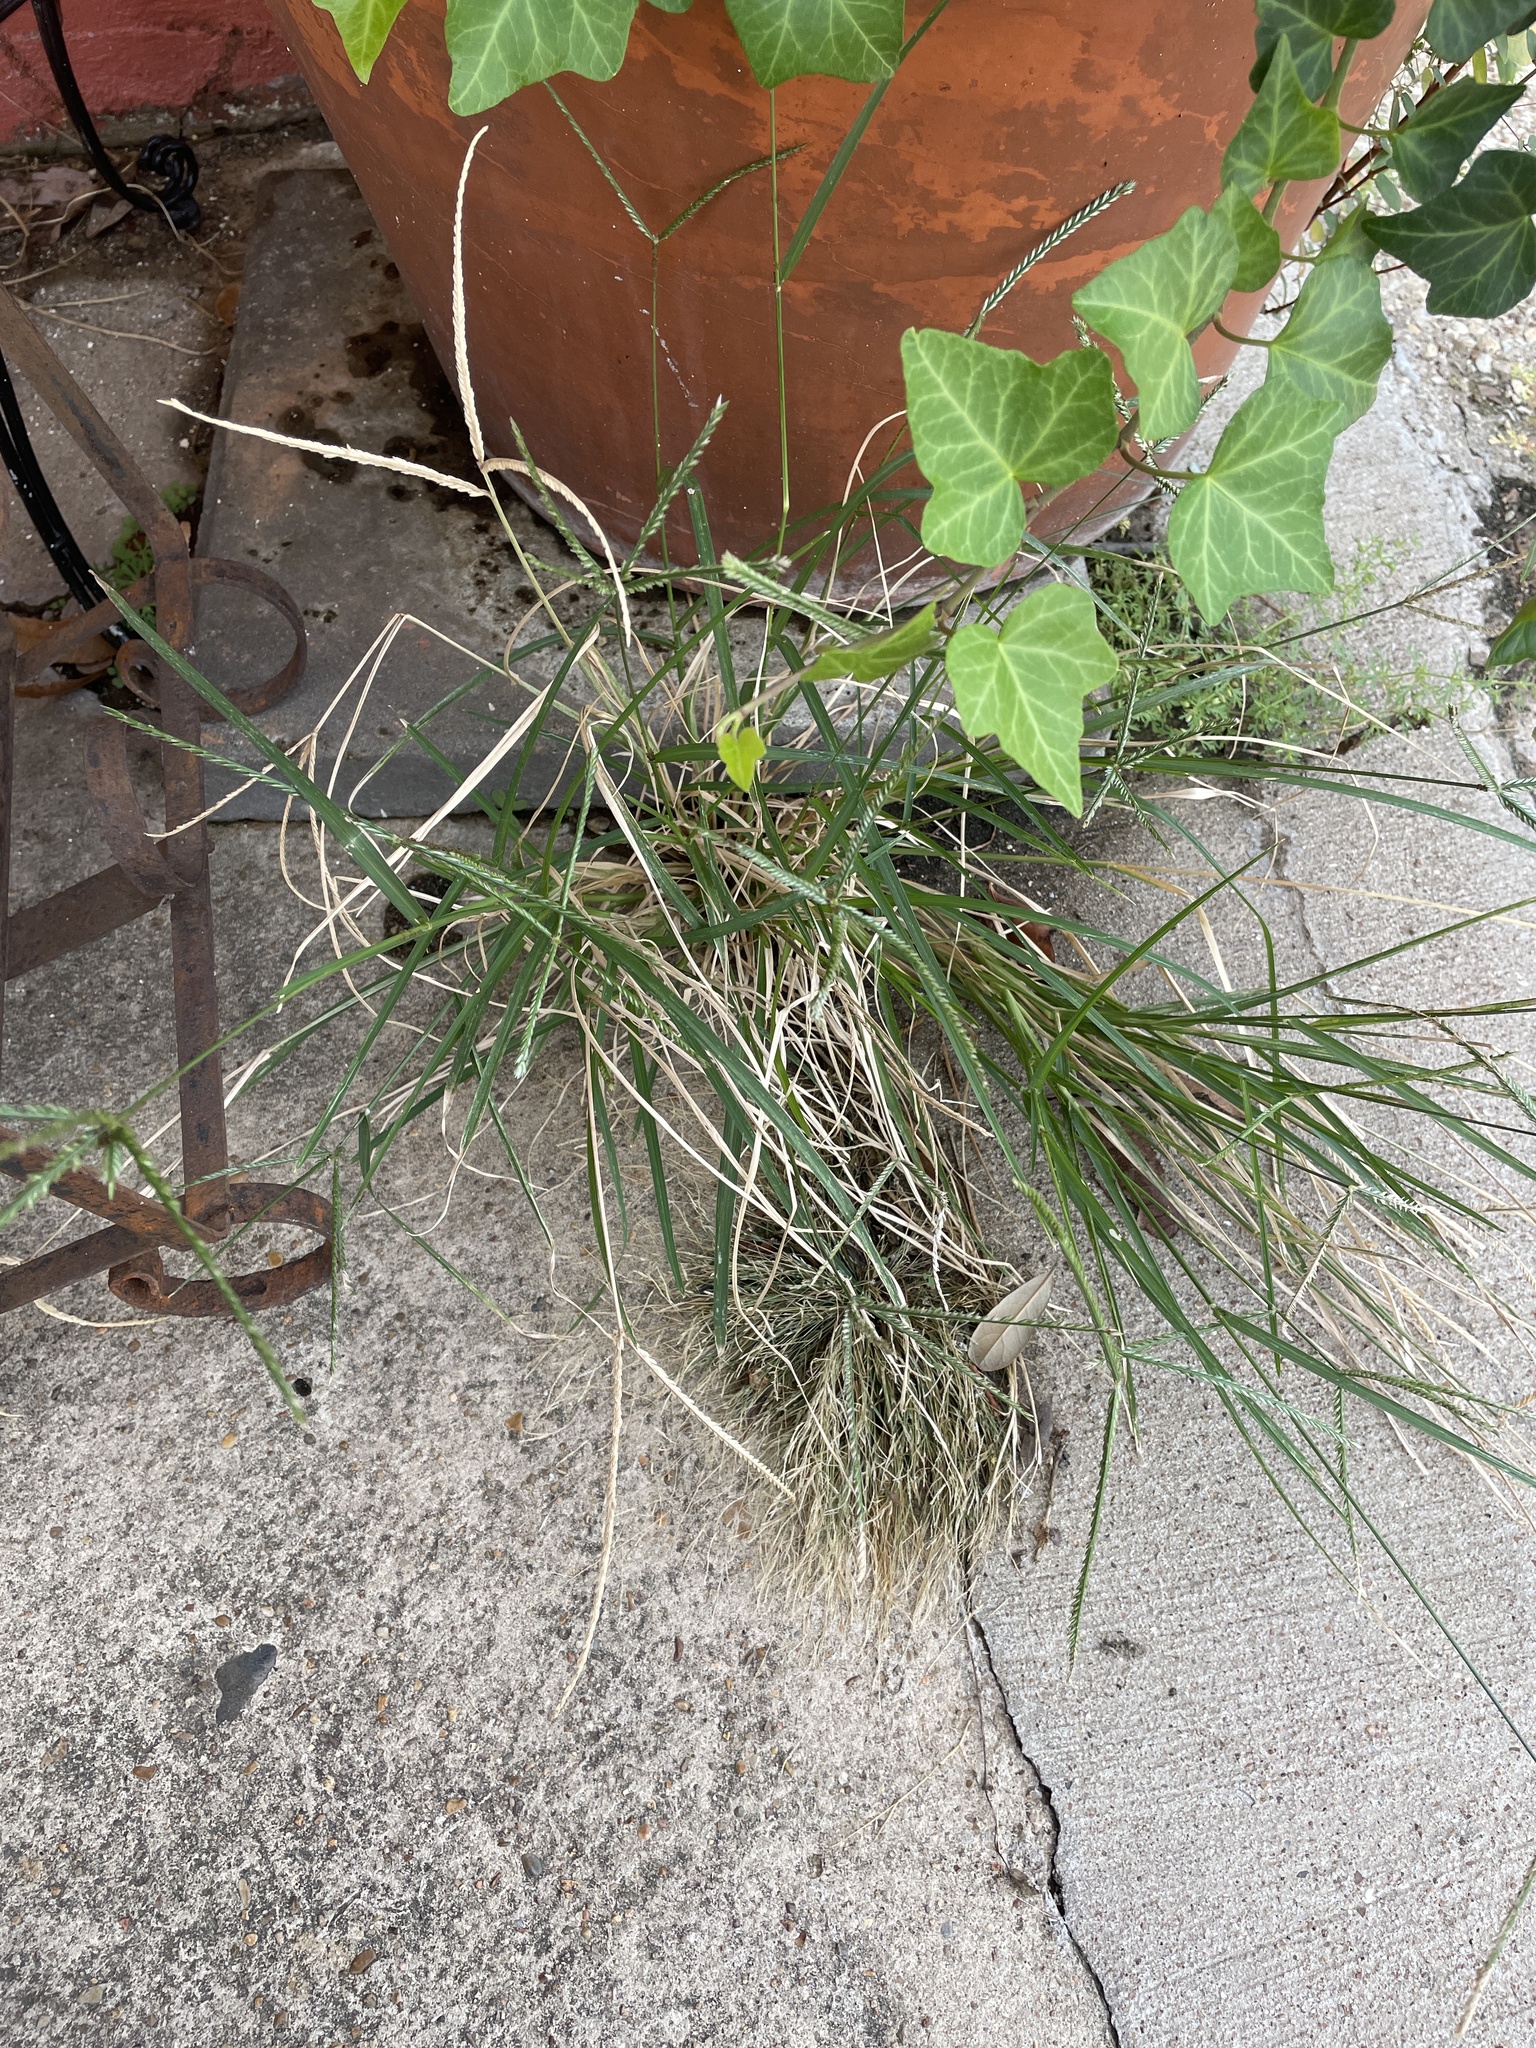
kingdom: Plantae
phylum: Tracheophyta
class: Liliopsida
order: Poales
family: Poaceae
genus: Eleusine
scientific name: Eleusine indica
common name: Yard-grass
